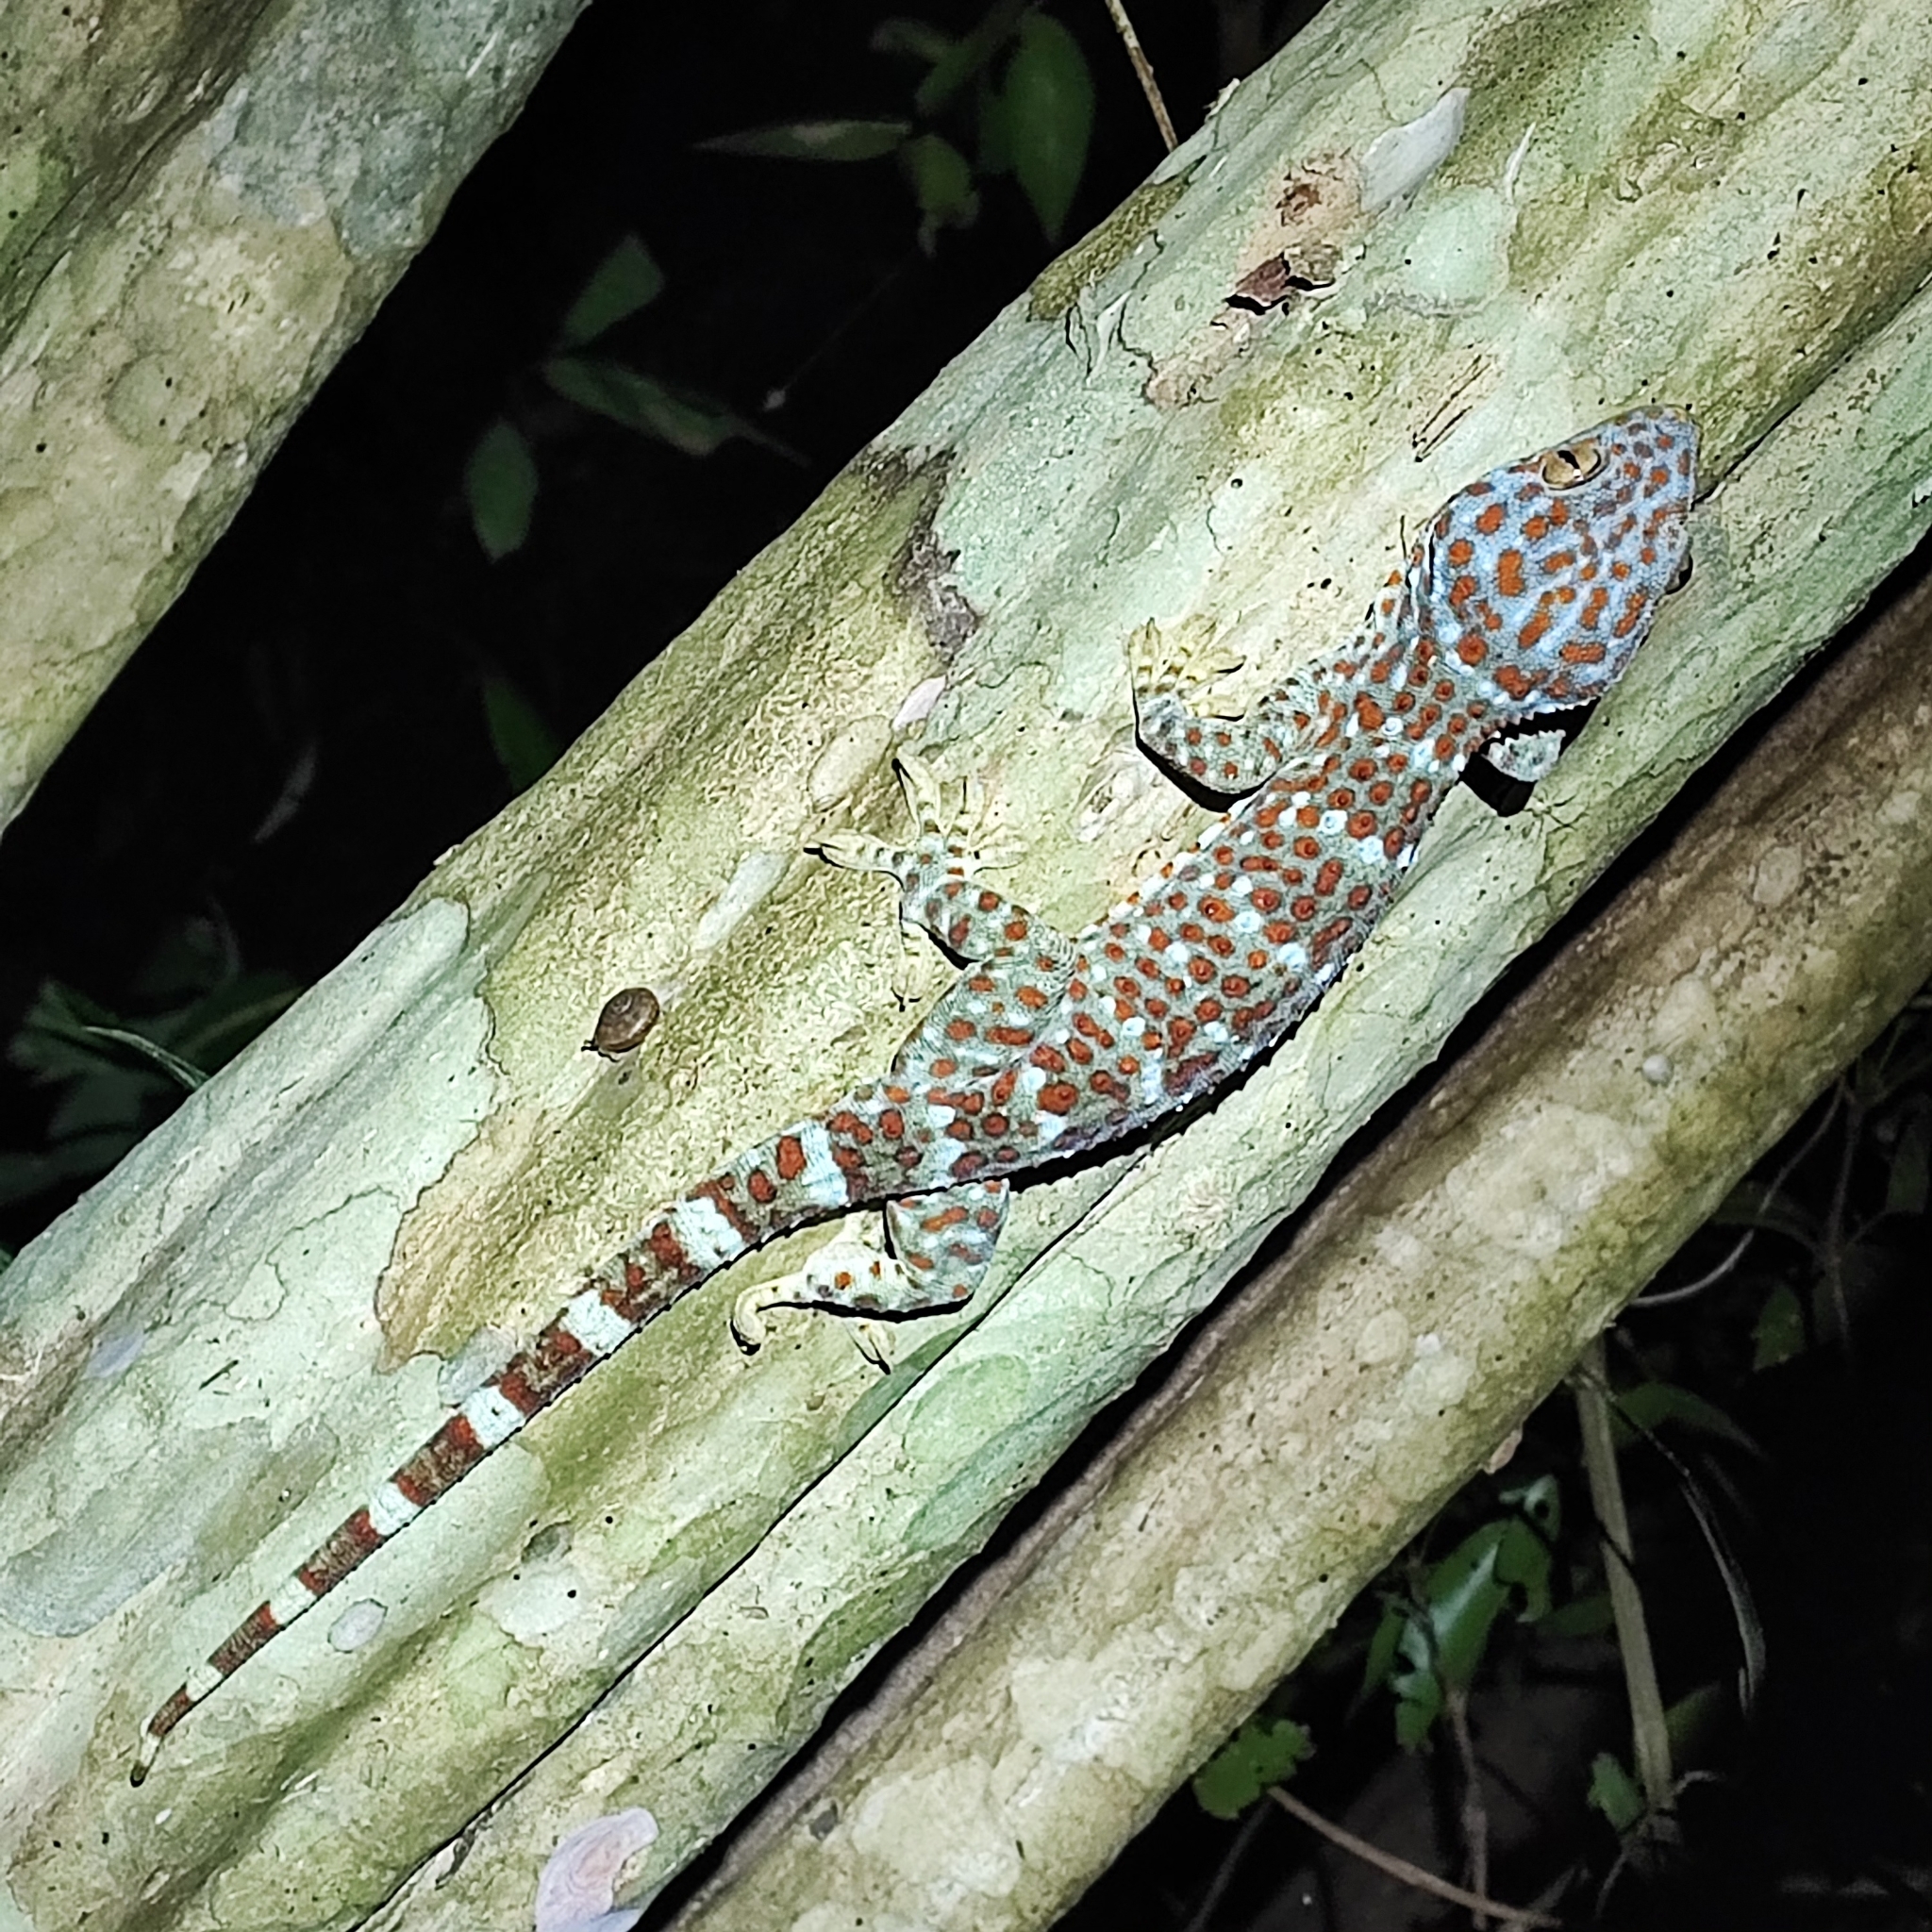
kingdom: Animalia
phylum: Chordata
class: Squamata
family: Gekkonidae
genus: Gekko
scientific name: Gekko gecko
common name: Tokay gecko
